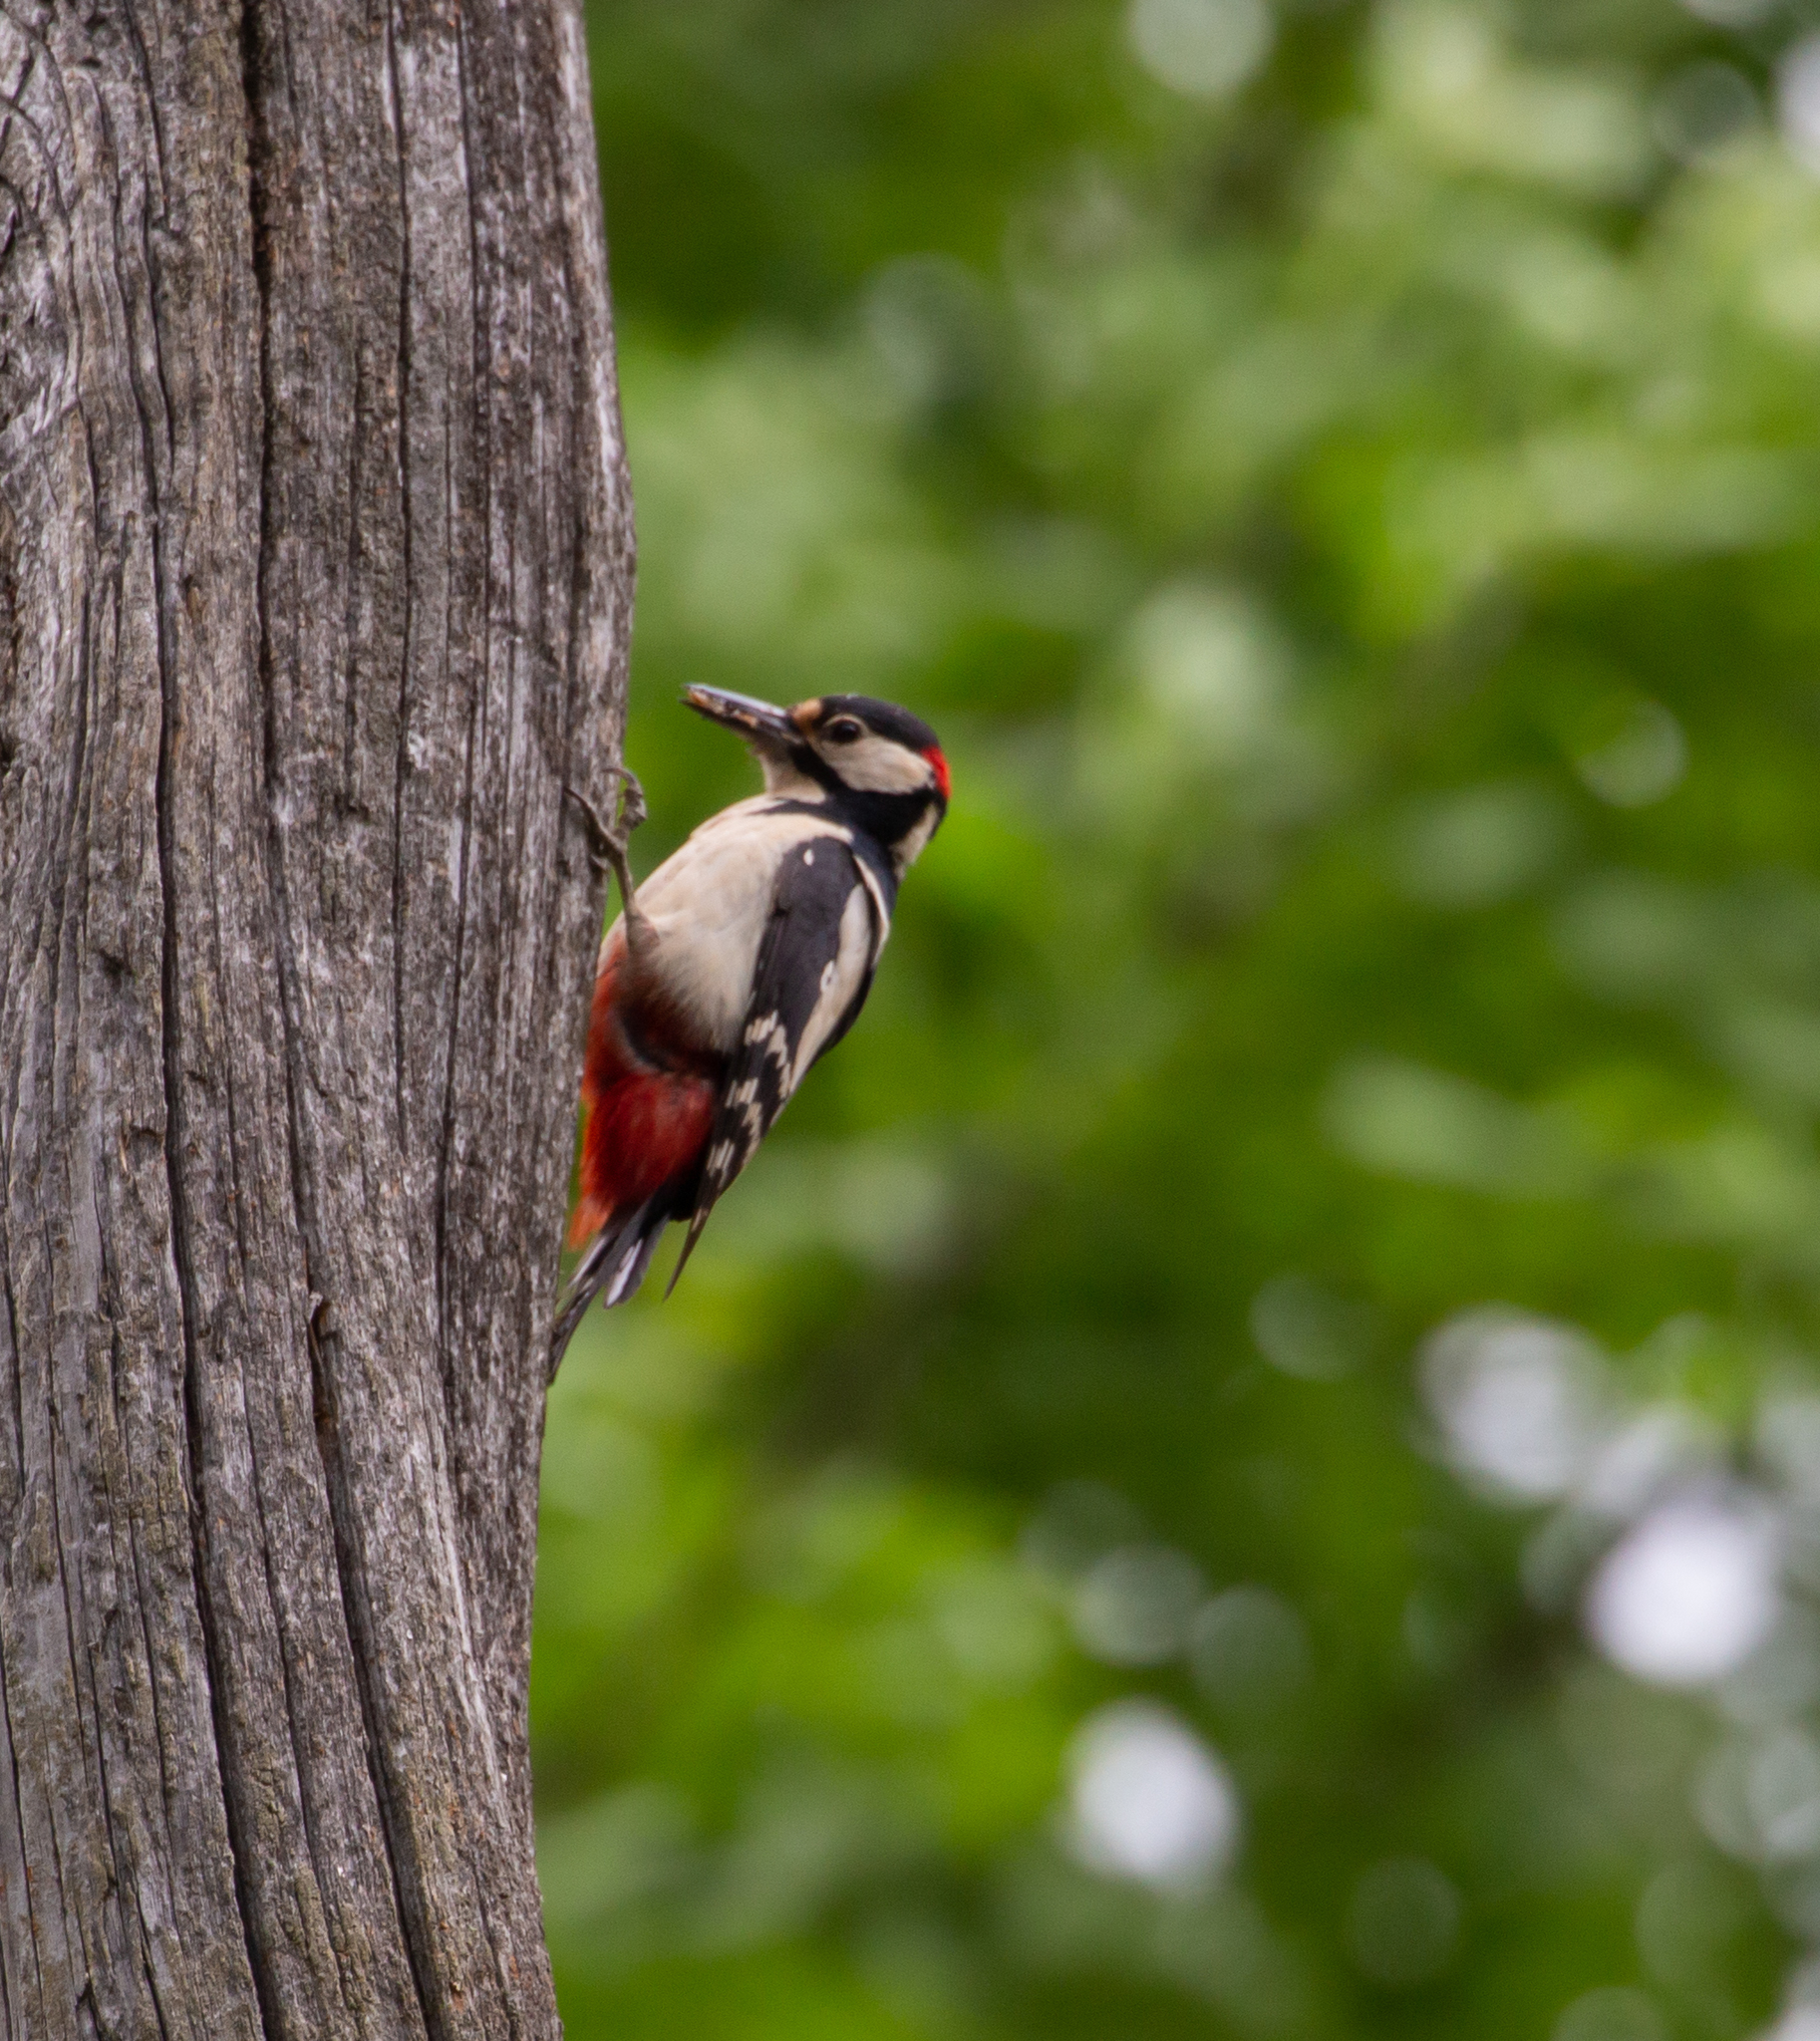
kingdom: Animalia
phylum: Chordata
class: Aves
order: Piciformes
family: Picidae
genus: Dendrocopos
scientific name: Dendrocopos major
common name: Great spotted woodpecker
